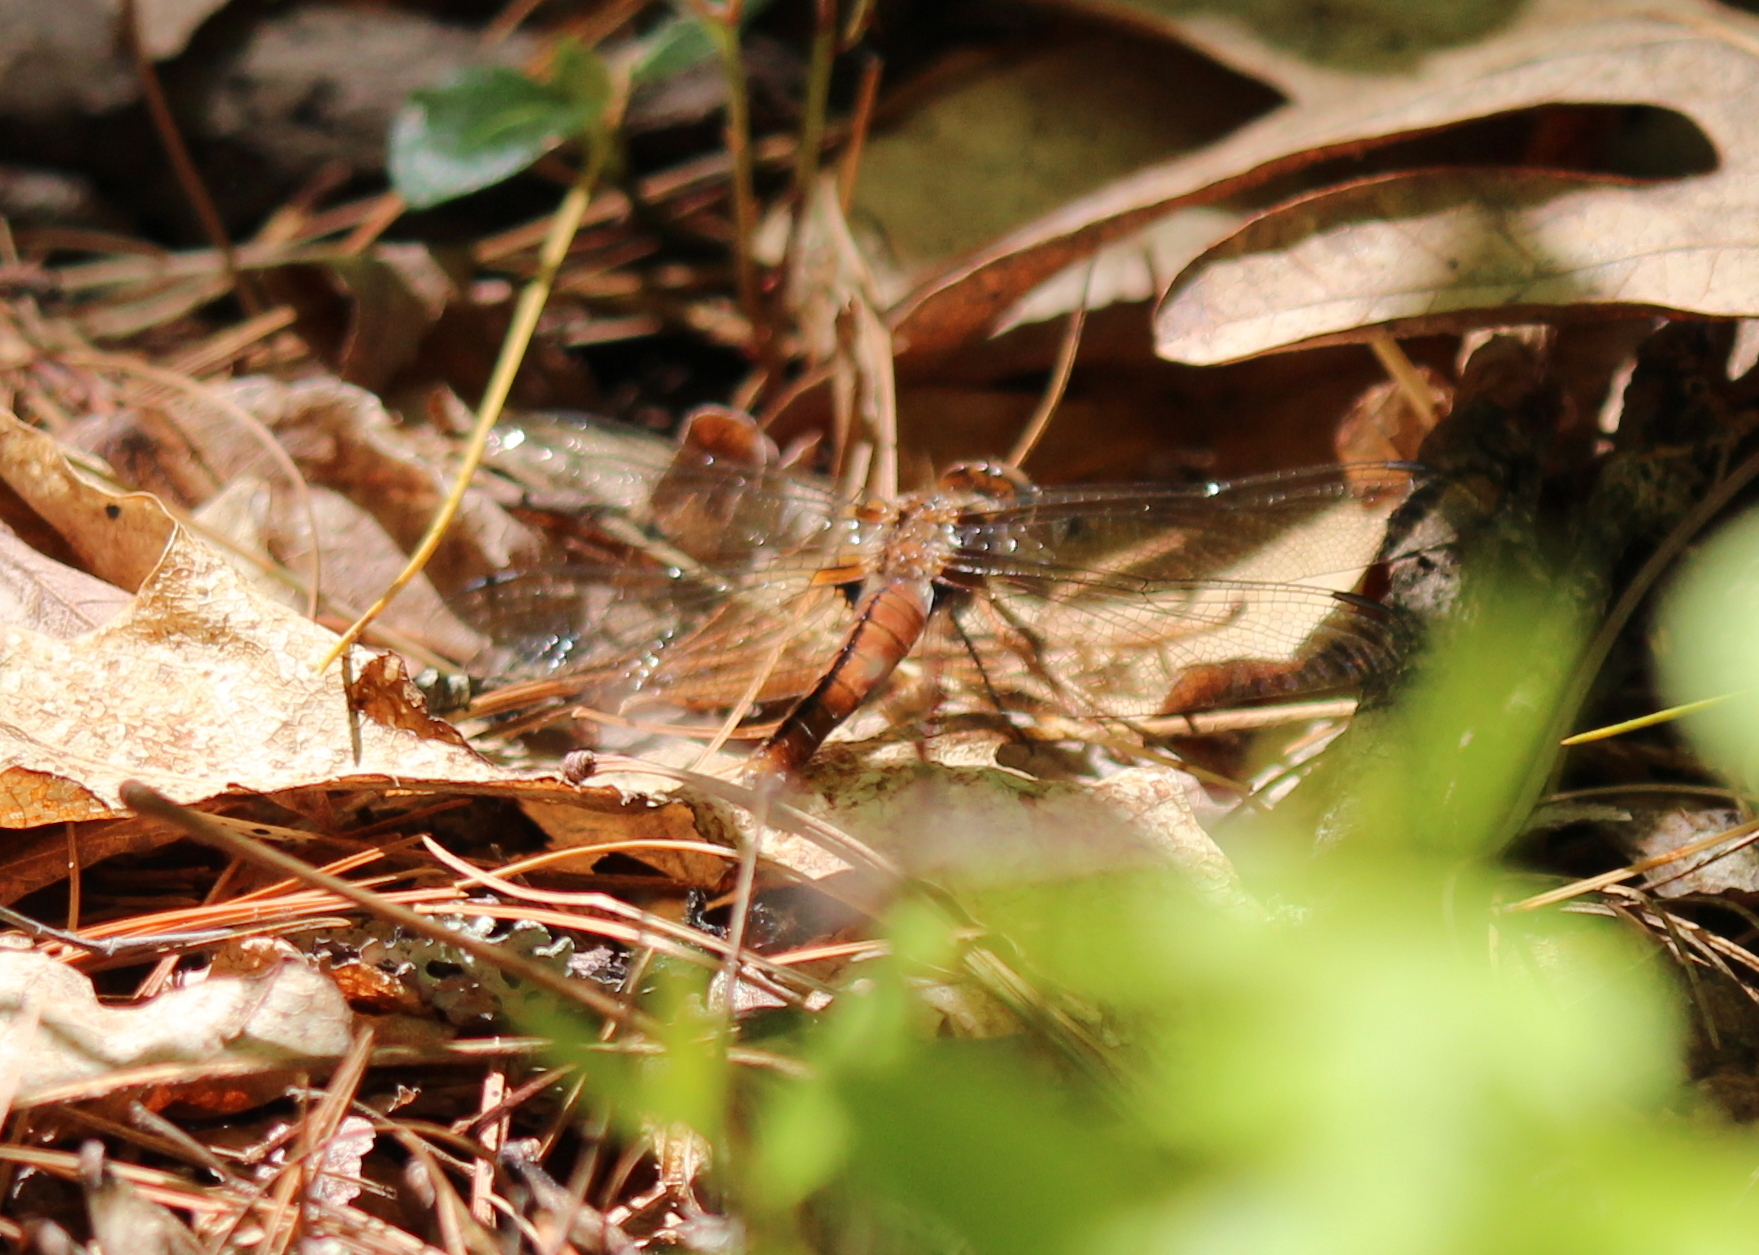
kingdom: Animalia
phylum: Arthropoda
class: Insecta
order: Odonata
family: Libellulidae
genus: Ladona
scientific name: Ladona julia
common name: Chalk-fronted corporal
